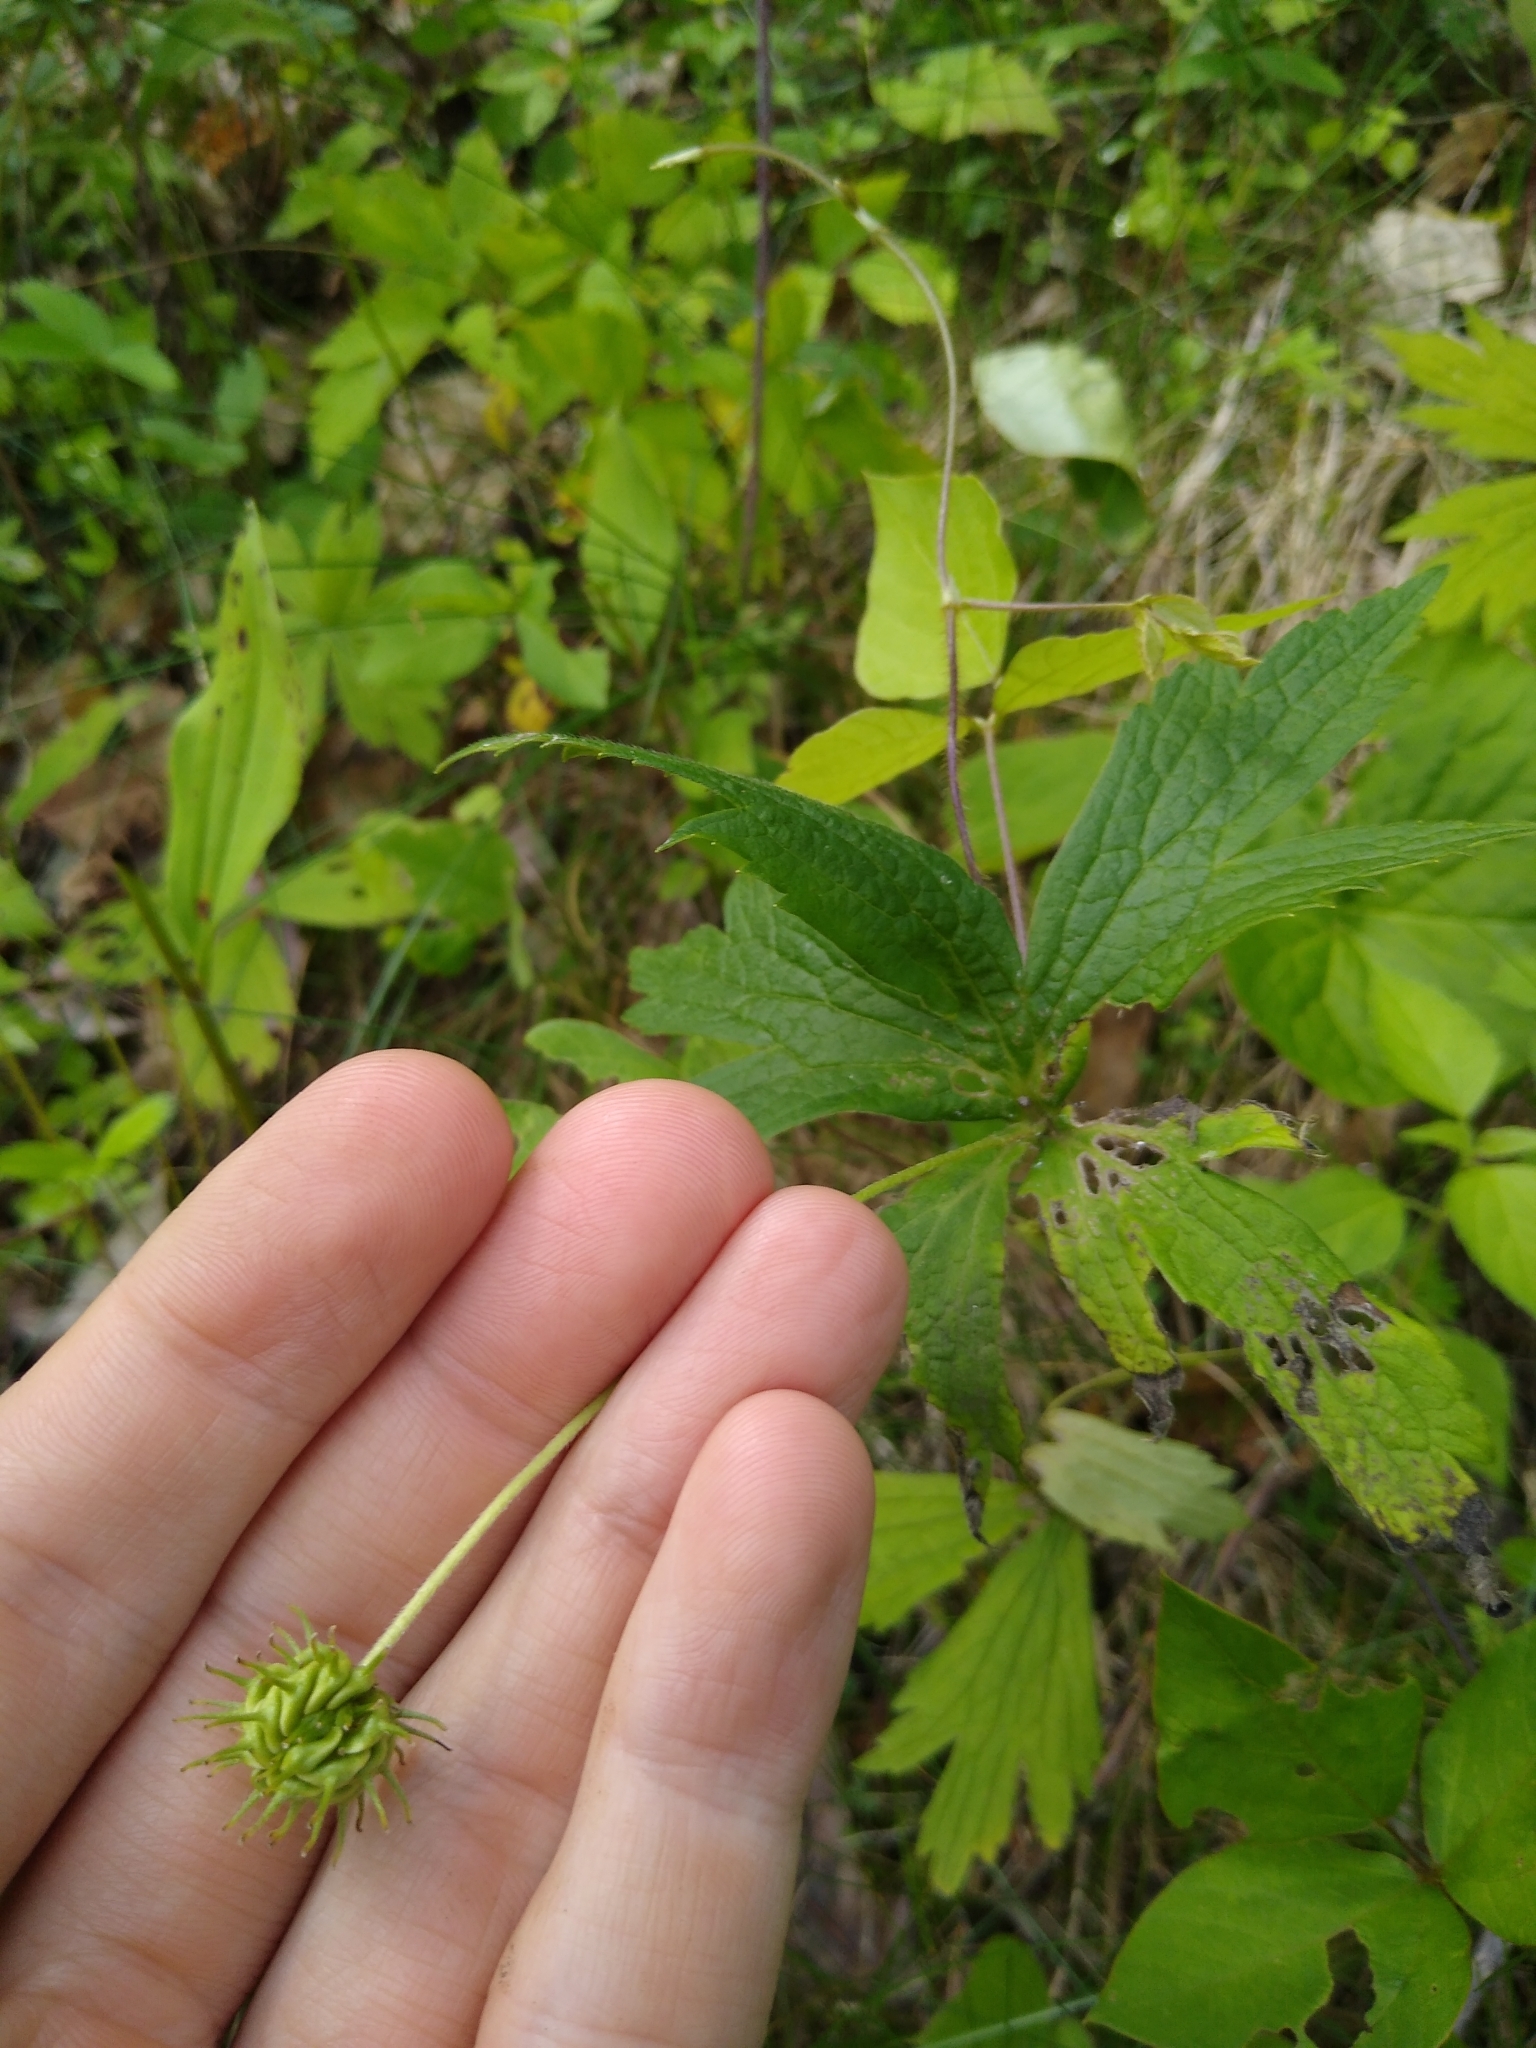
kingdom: Plantae
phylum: Tracheophyta
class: Magnoliopsida
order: Ranunculales
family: Ranunculaceae
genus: Anemonastrum
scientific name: Anemonastrum canadense
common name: Canada anemone
